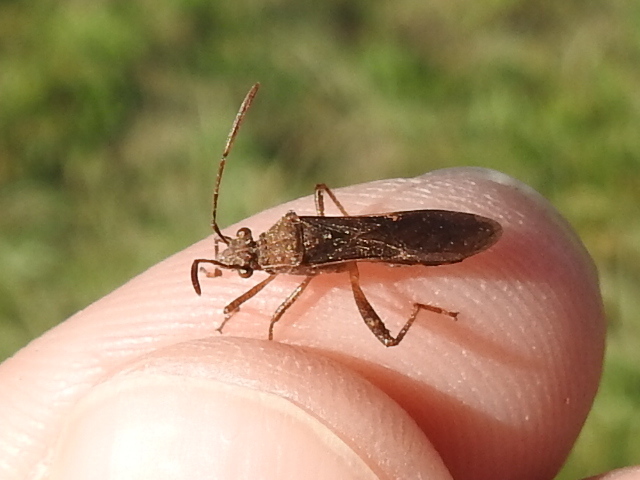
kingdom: Animalia
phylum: Arthropoda
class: Insecta
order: Hemiptera
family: Alydidae
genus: Burtinus
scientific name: Burtinus notatipennis
